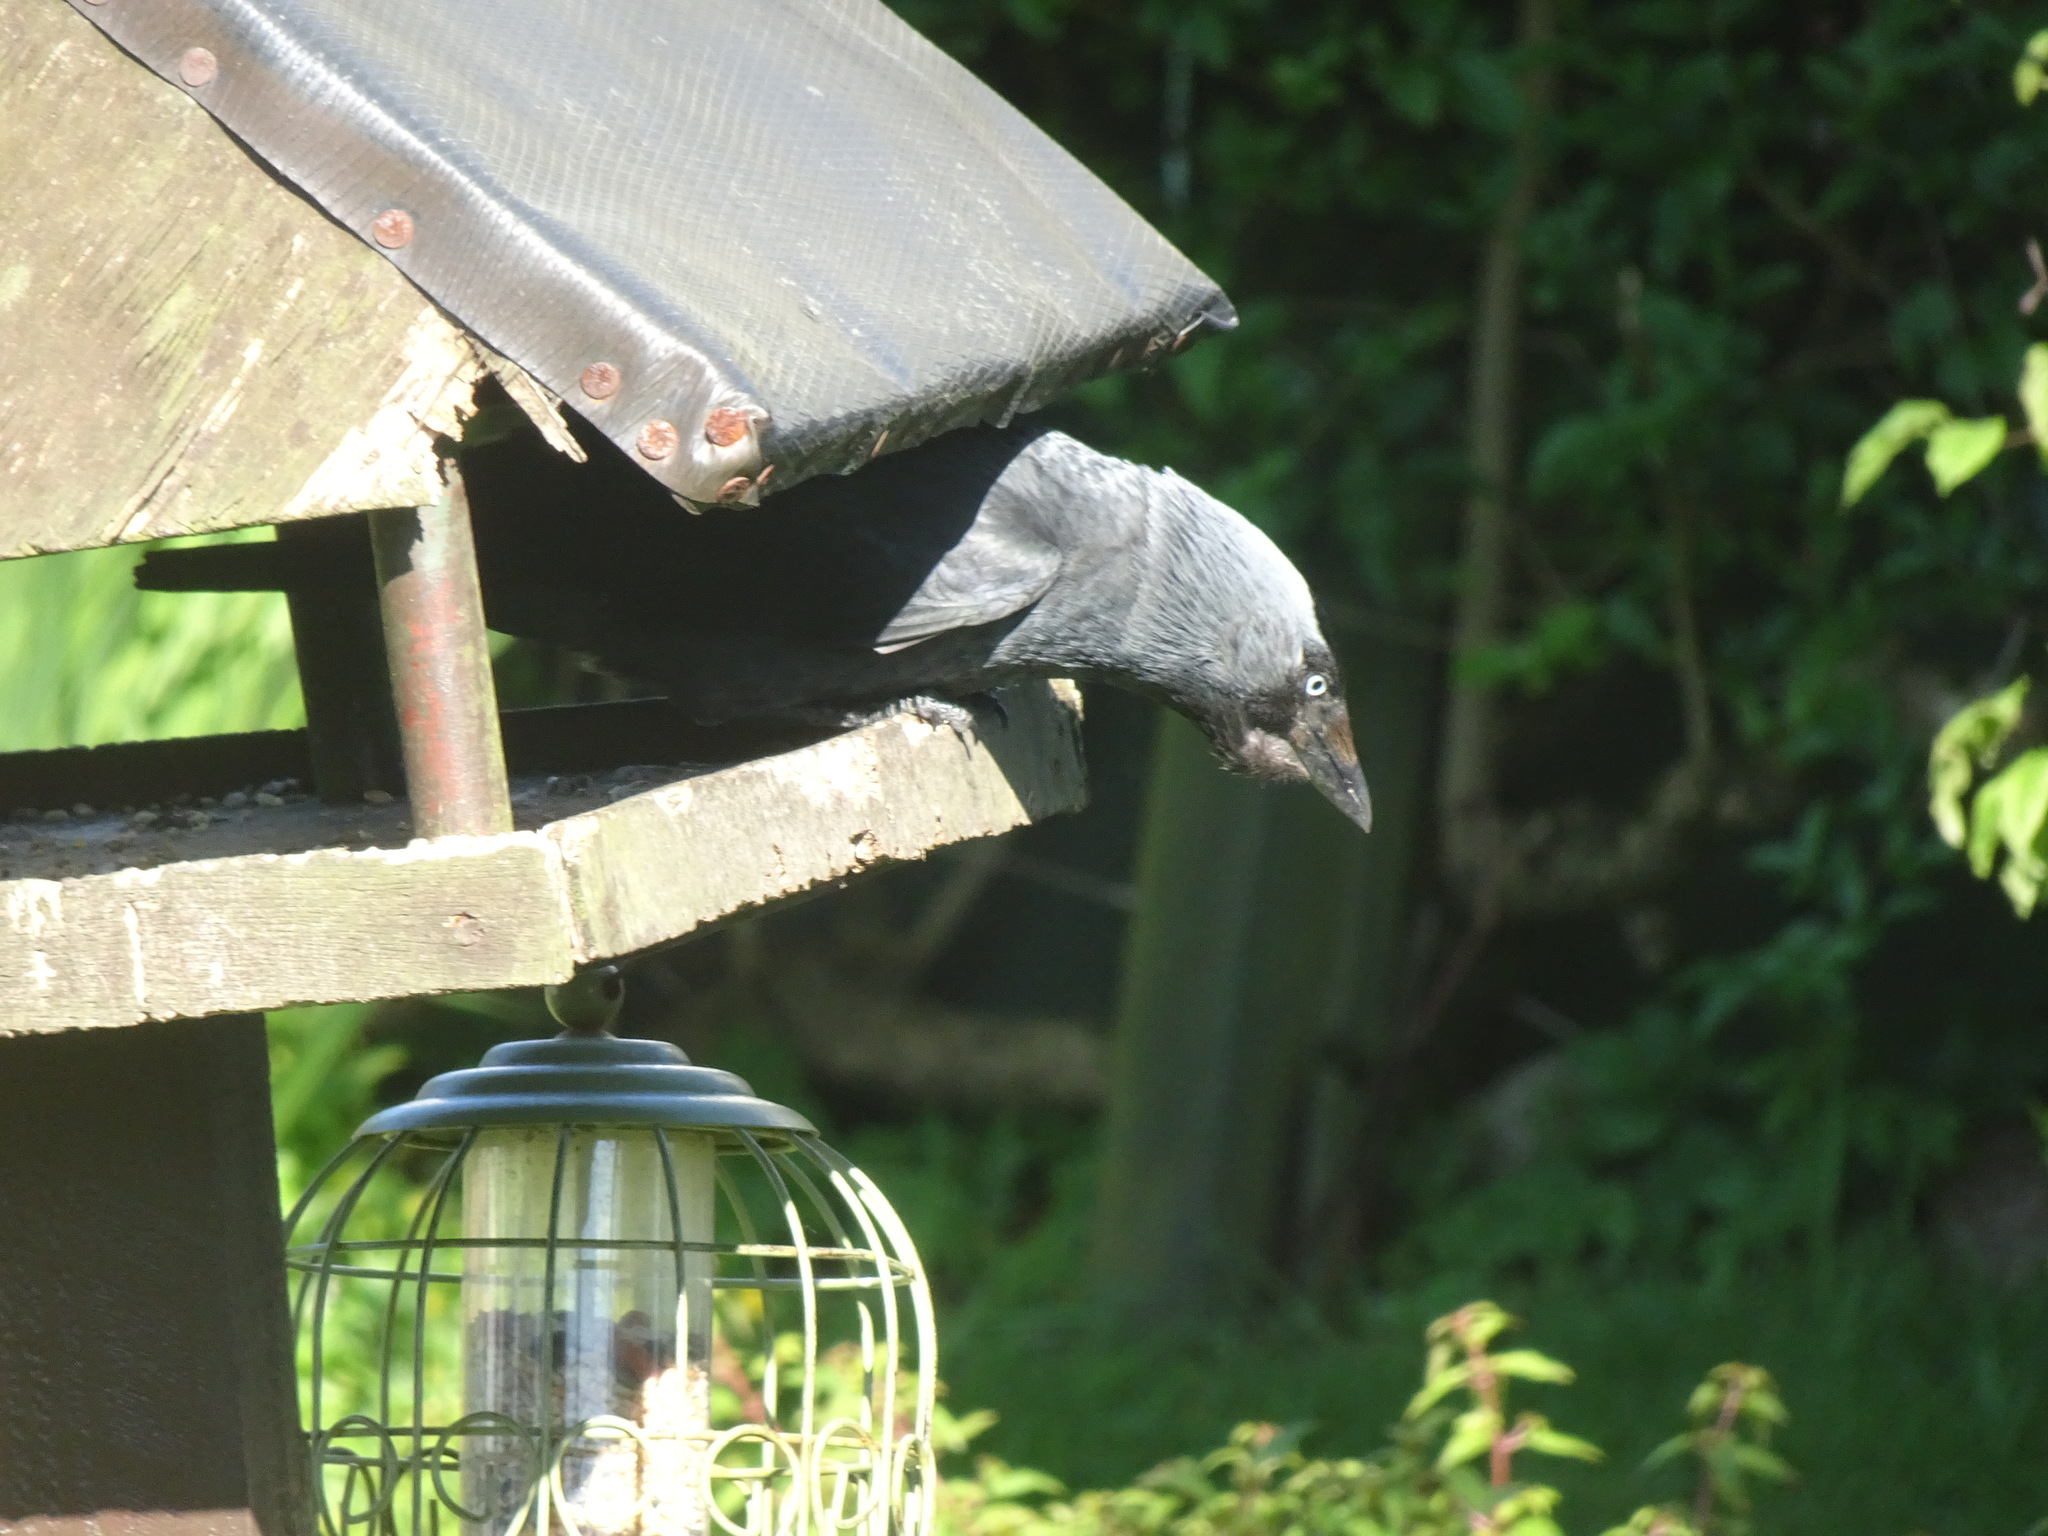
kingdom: Animalia
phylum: Chordata
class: Aves
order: Passeriformes
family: Corvidae
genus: Coloeus
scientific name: Coloeus monedula
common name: Western jackdaw
